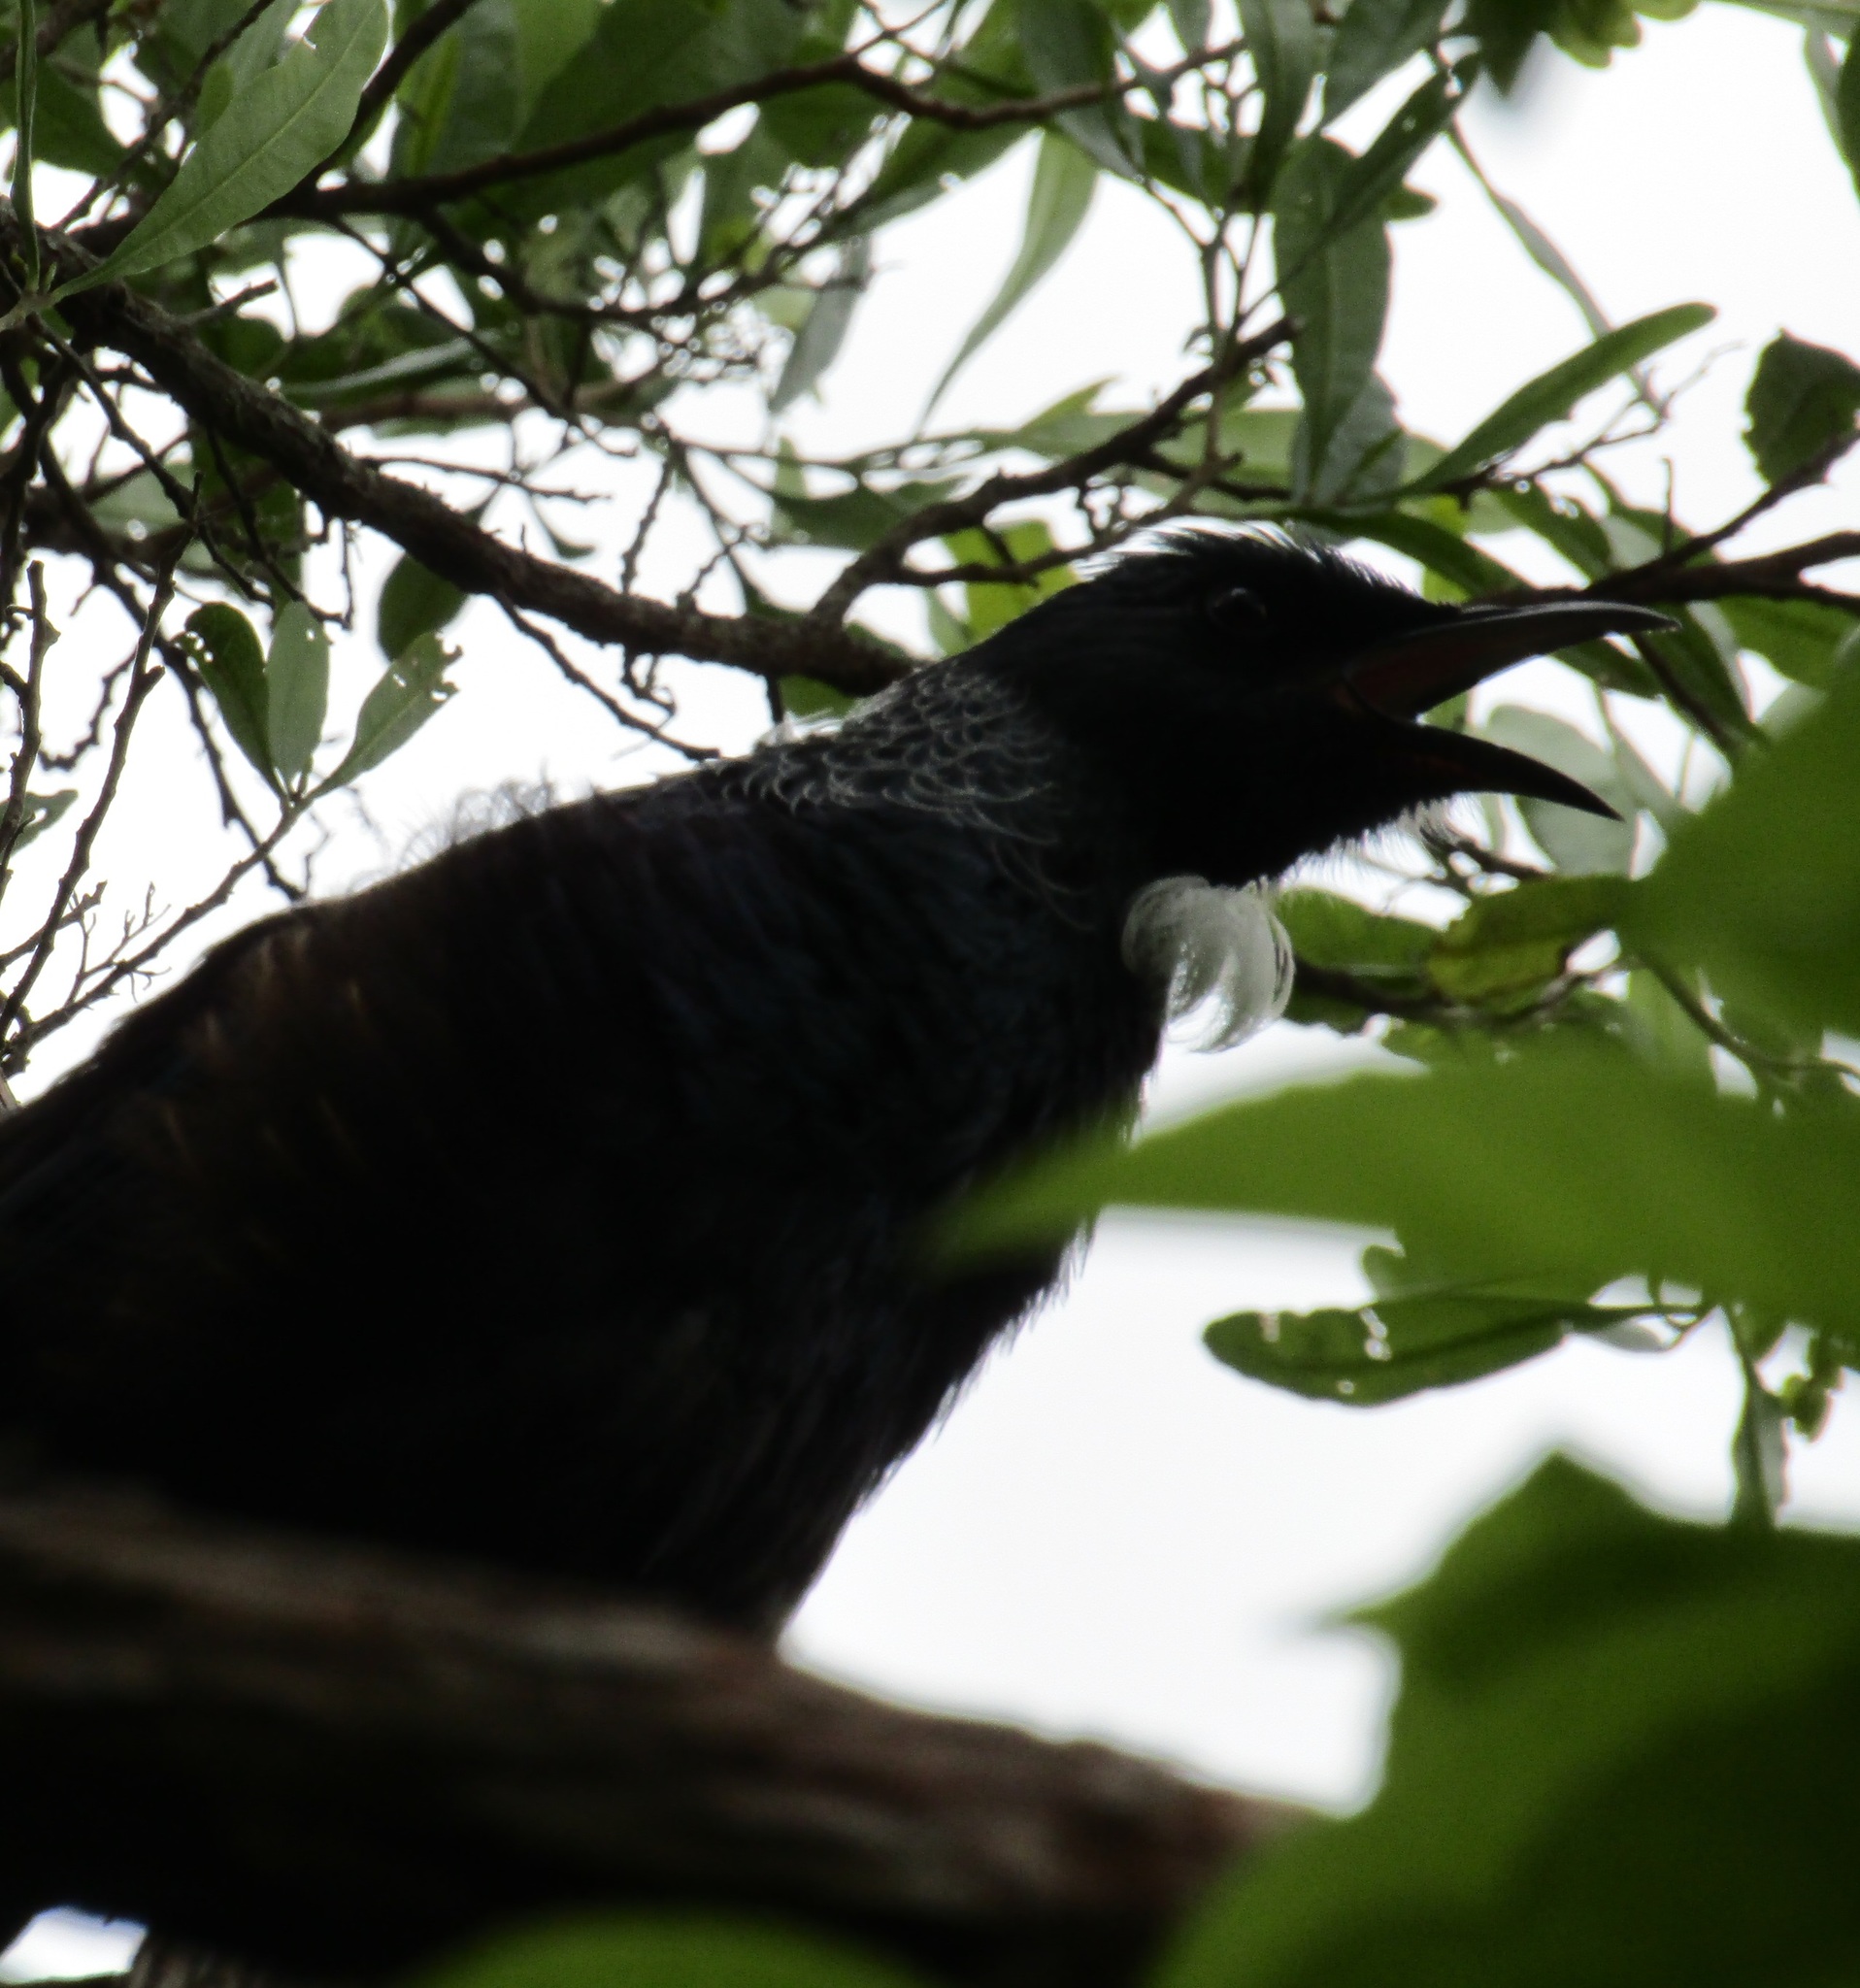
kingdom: Animalia
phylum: Chordata
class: Aves
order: Passeriformes
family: Meliphagidae
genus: Prosthemadera
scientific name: Prosthemadera novaeseelandiae
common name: Tui
